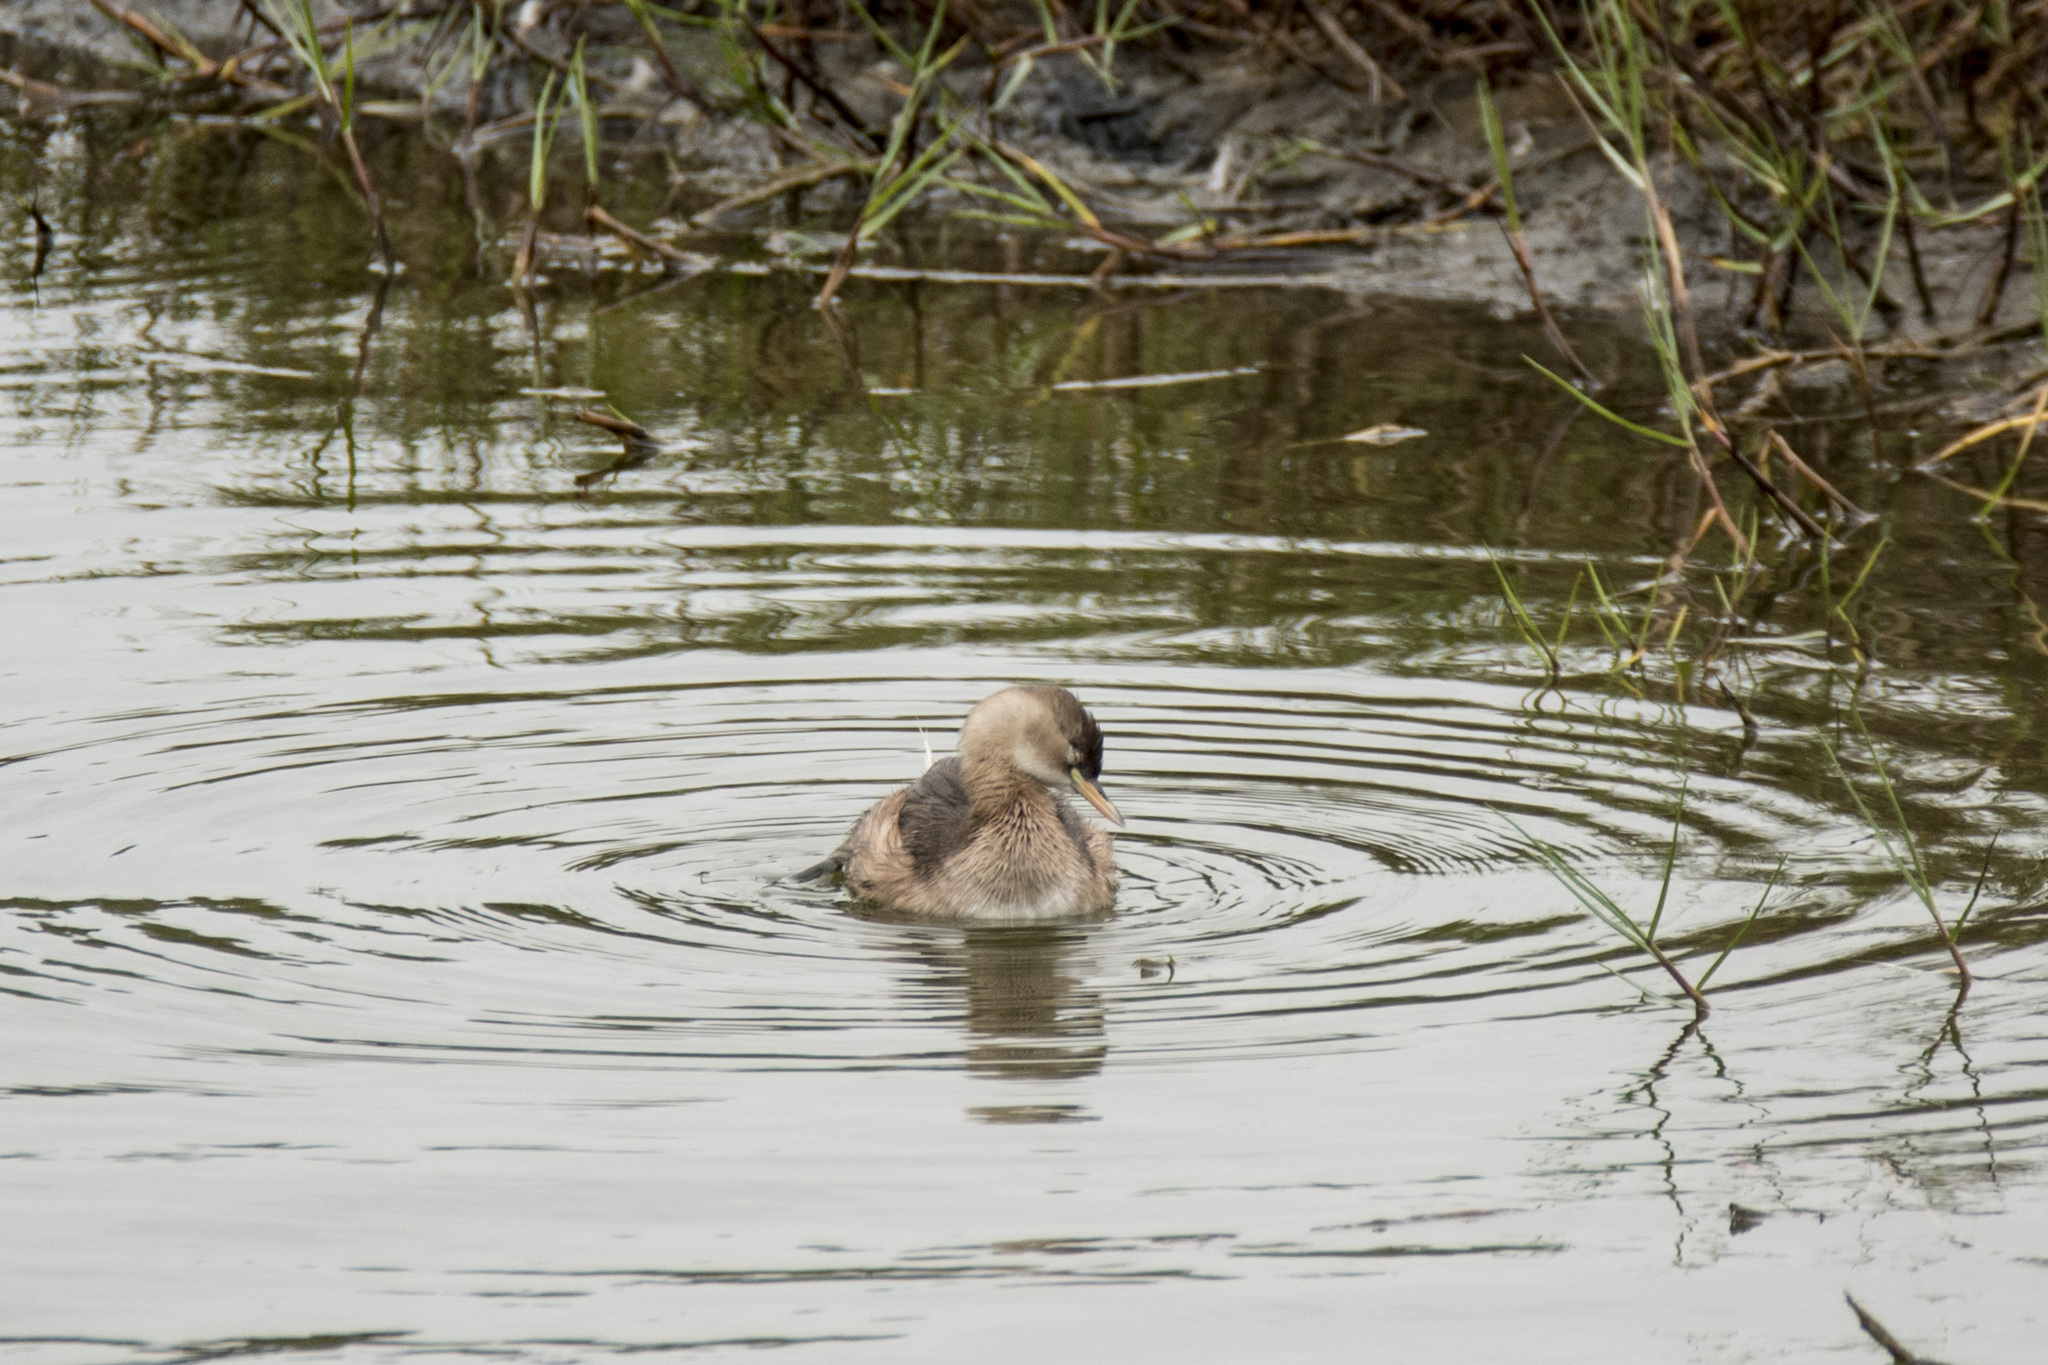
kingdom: Animalia
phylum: Chordata
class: Aves
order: Podicipediformes
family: Podicipedidae
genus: Tachybaptus
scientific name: Tachybaptus ruficollis
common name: Little grebe
